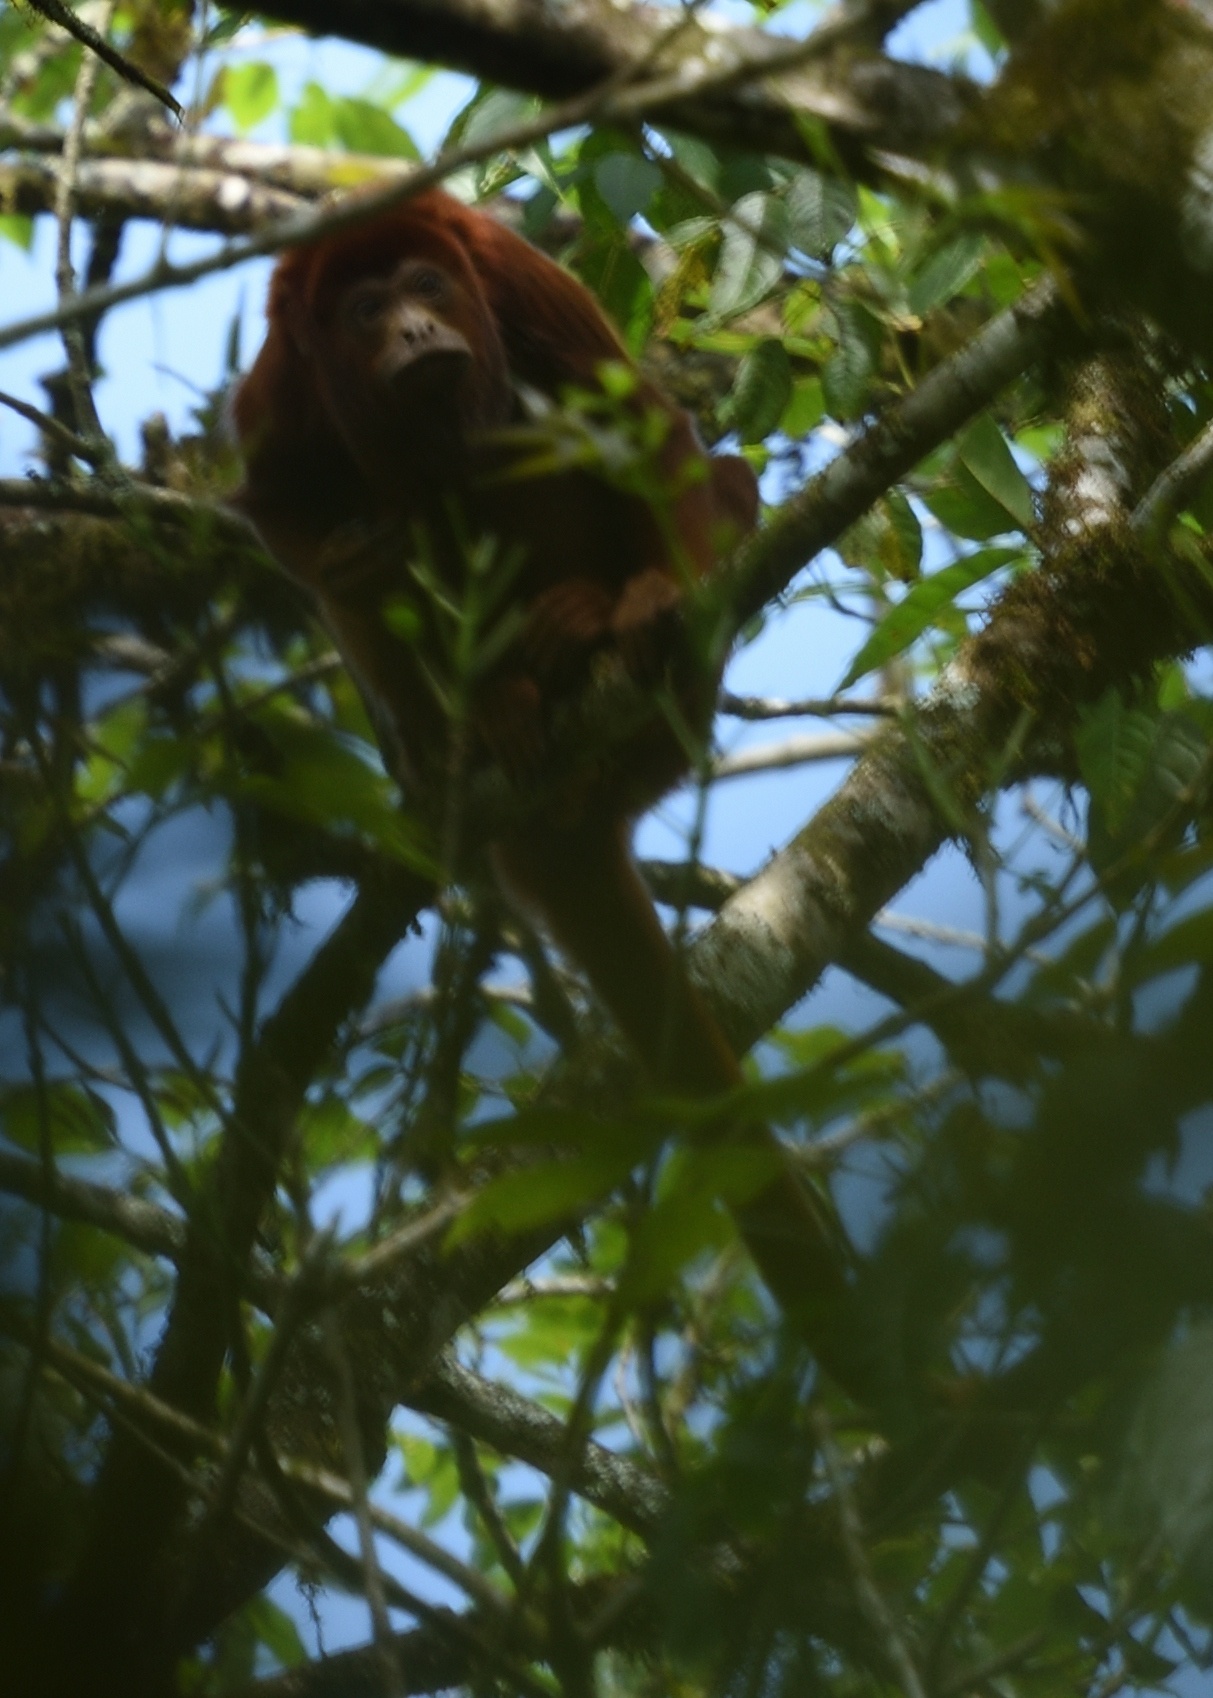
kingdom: Animalia
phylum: Chordata
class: Mammalia
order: Primates
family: Atelidae
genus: Alouatta
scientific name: Alouatta seniculus
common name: Venezuelan red howler
